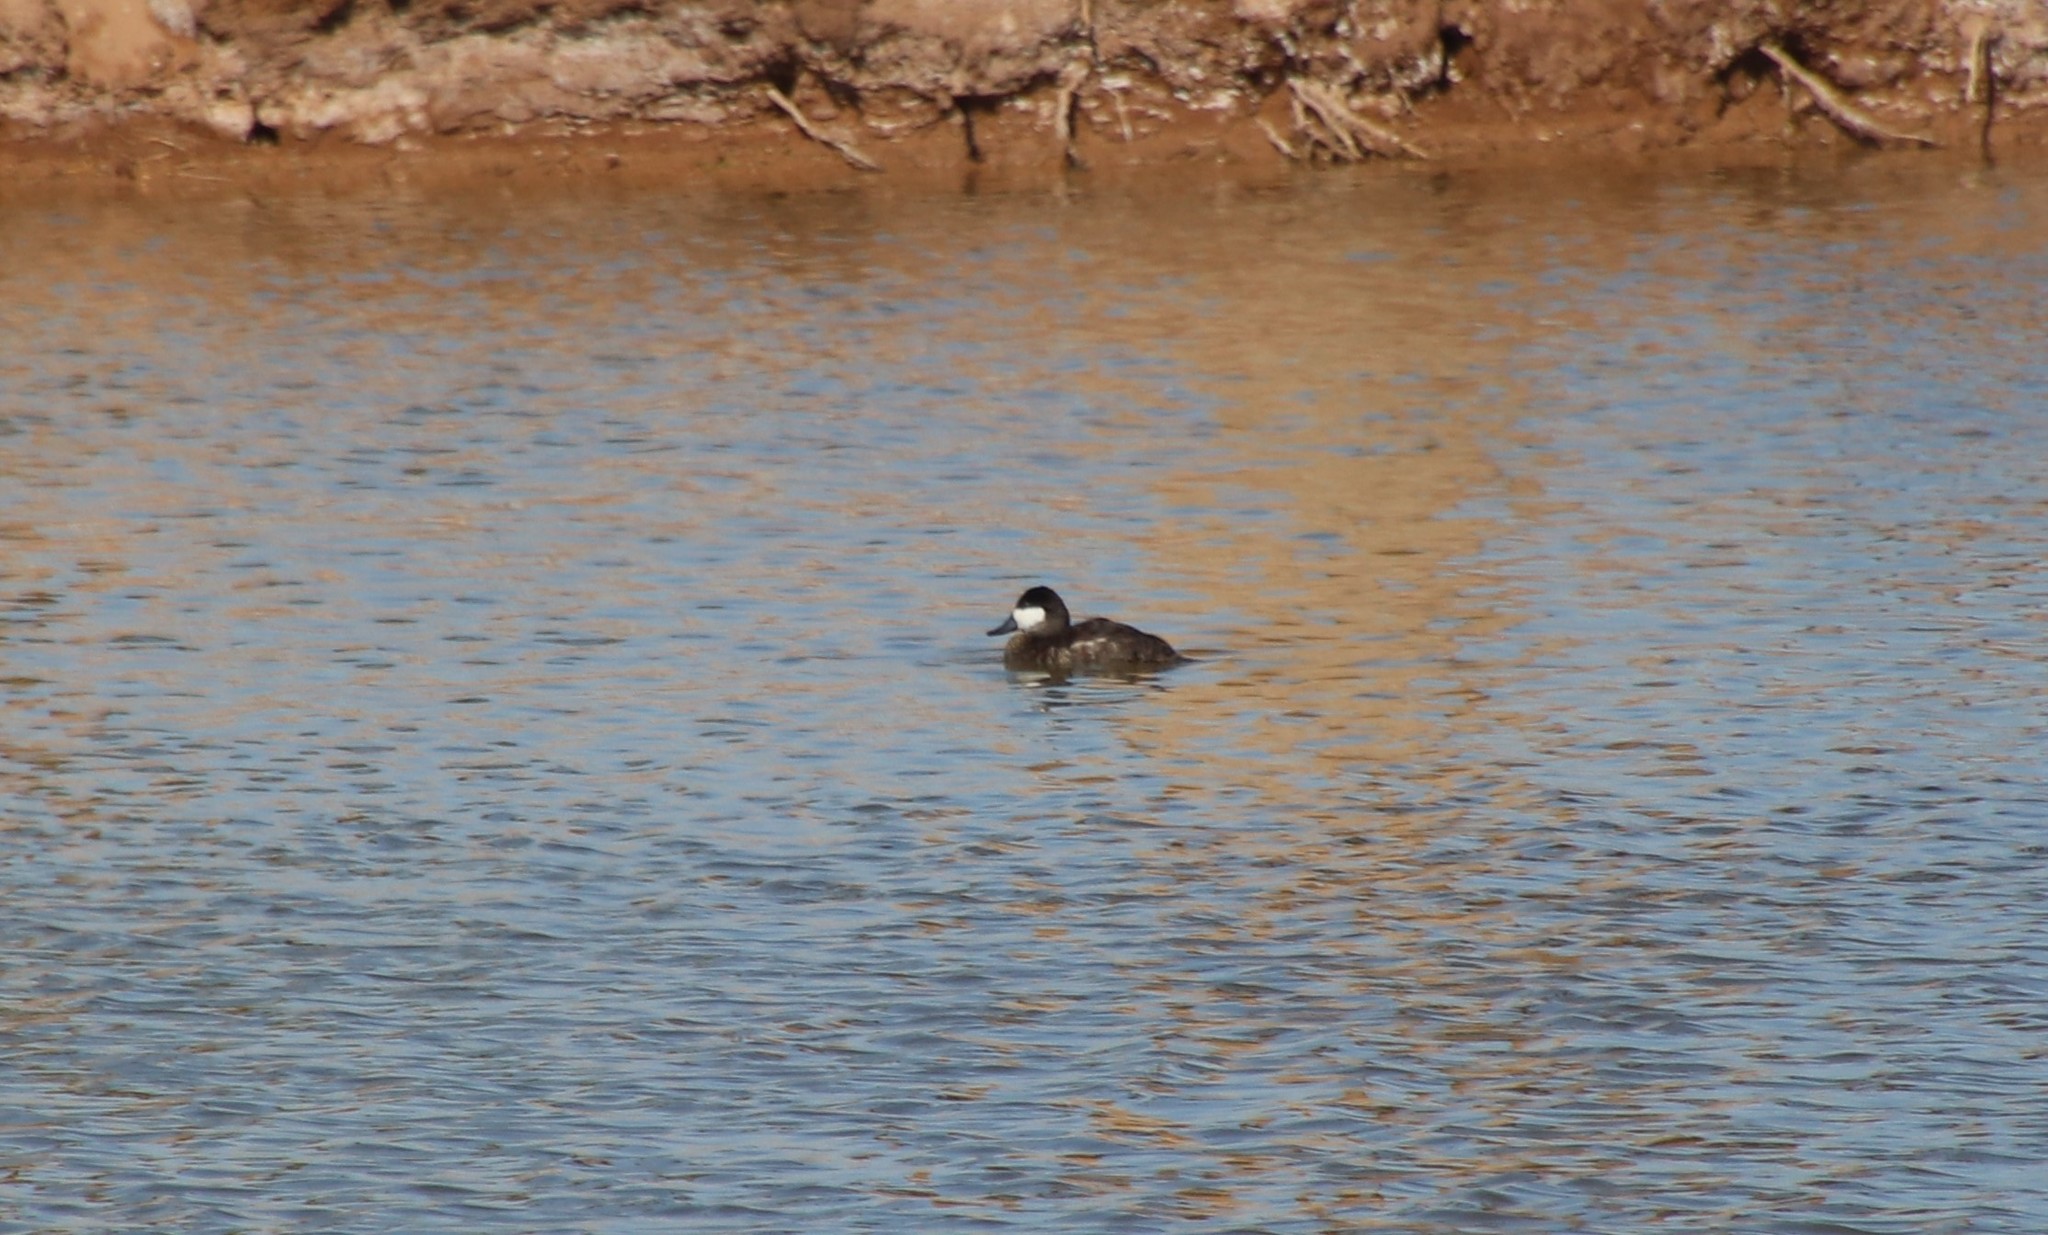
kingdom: Animalia
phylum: Chordata
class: Aves
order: Anseriformes
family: Anatidae
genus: Oxyura
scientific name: Oxyura jamaicensis
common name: Ruddy duck
